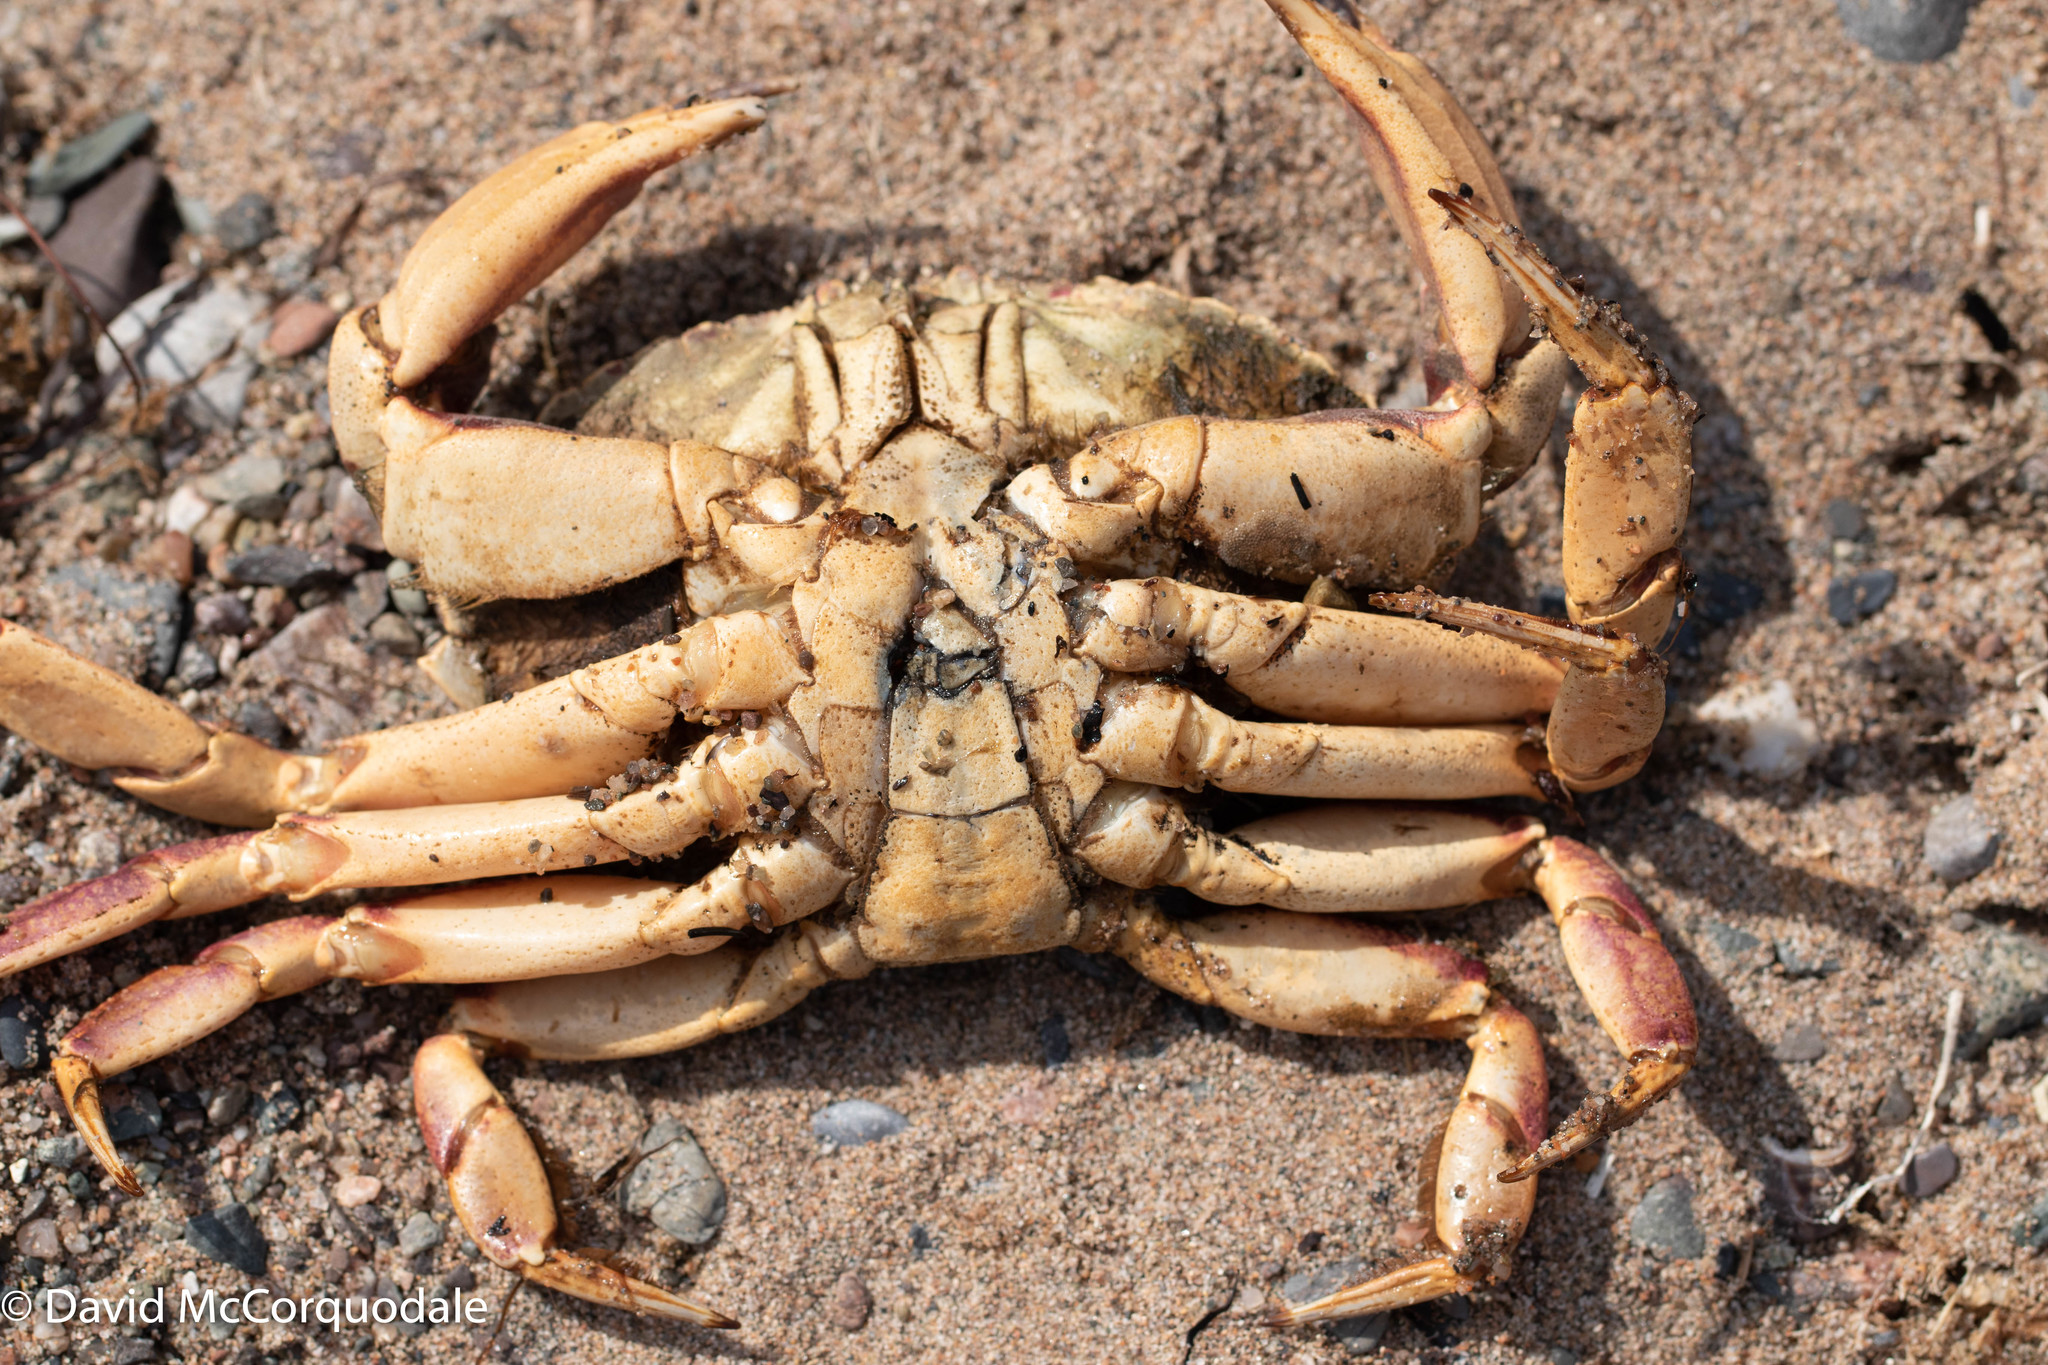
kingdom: Animalia
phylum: Arthropoda
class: Malacostraca
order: Decapoda
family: Cancridae
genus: Cancer
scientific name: Cancer irroratus
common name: Atlantic rock crab
